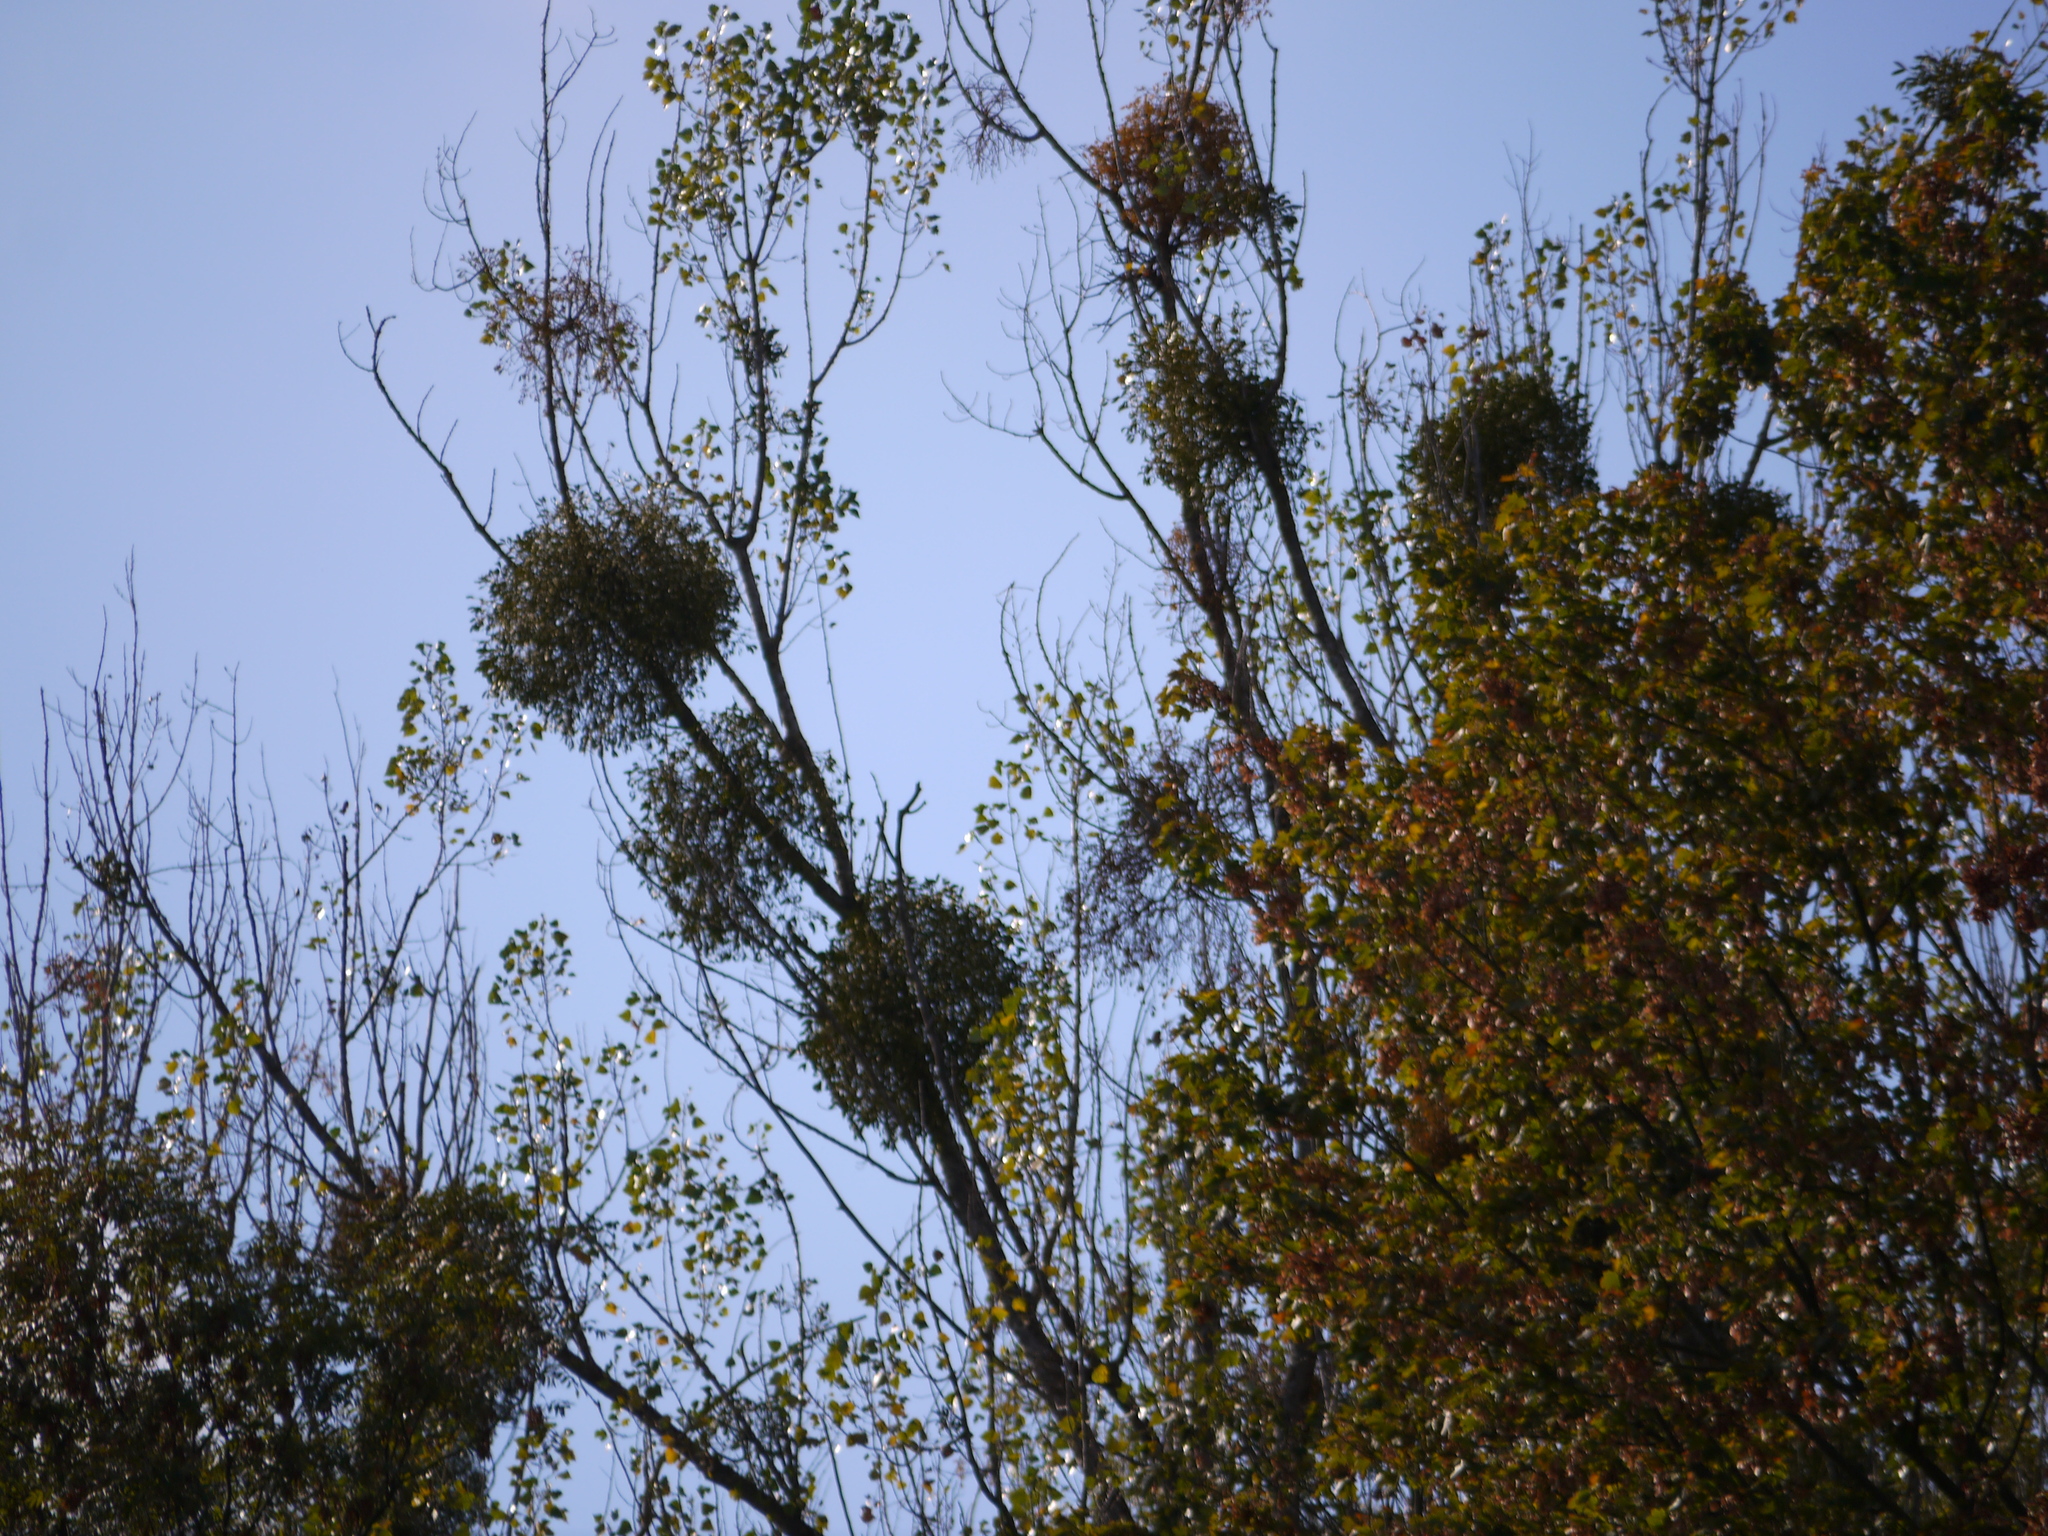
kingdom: Plantae
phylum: Tracheophyta
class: Magnoliopsida
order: Santalales
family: Viscaceae
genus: Viscum
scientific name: Viscum album
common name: Mistletoe
